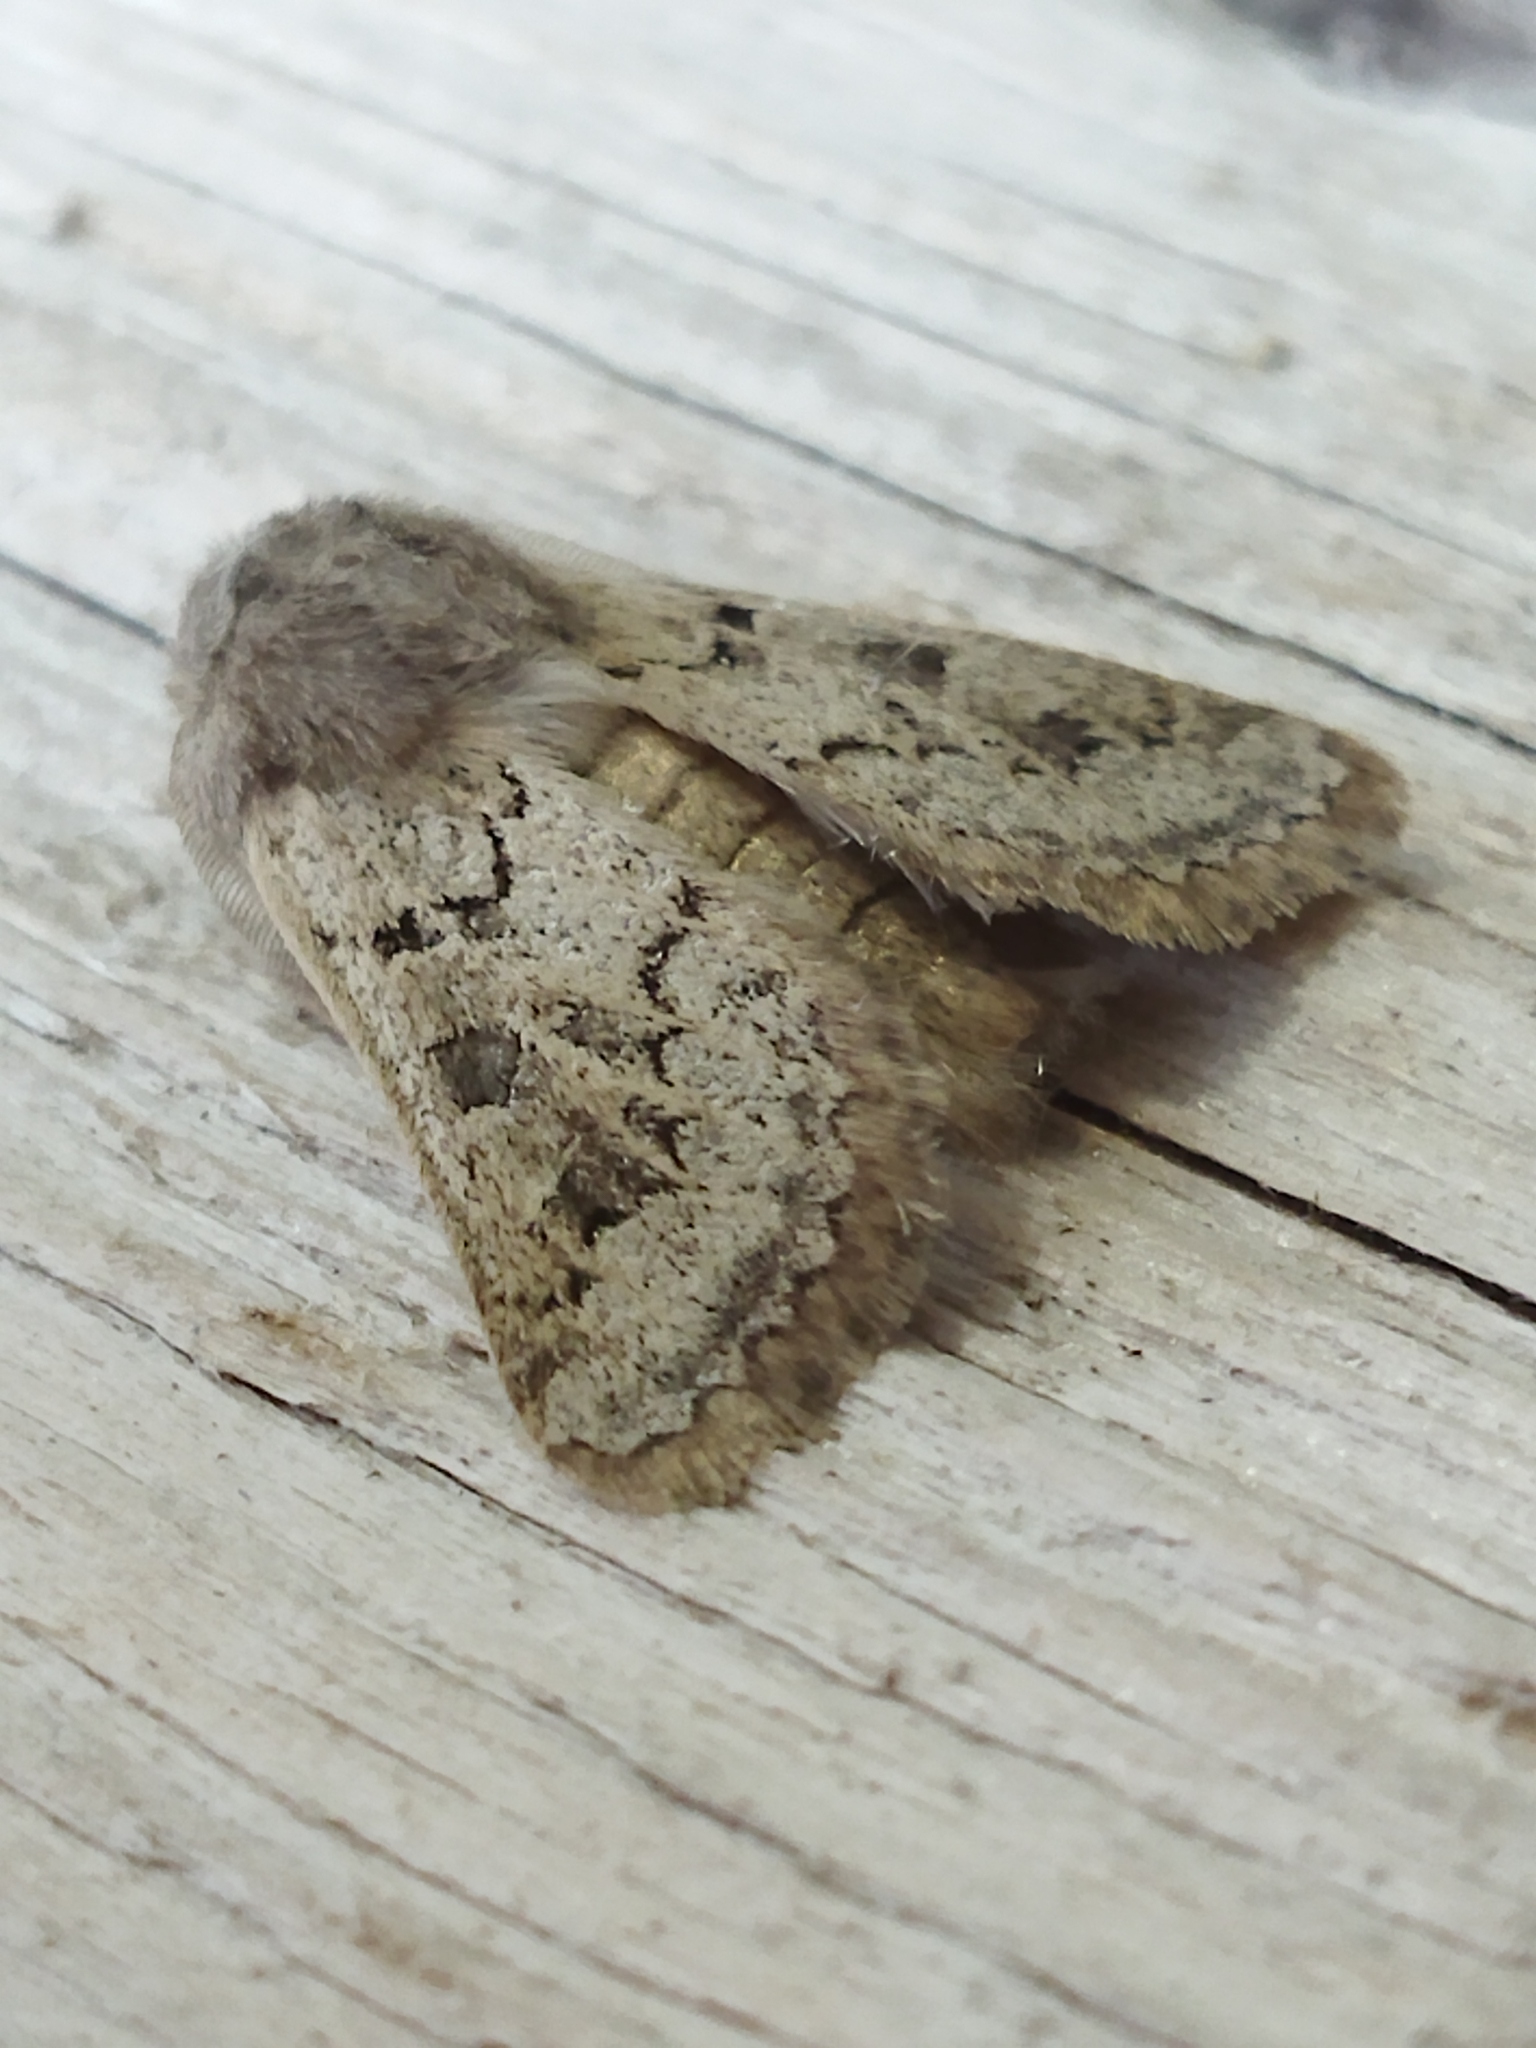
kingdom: Animalia
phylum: Arthropoda
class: Insecta
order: Lepidoptera
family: Noctuidae
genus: Episema
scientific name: Episema lederi
